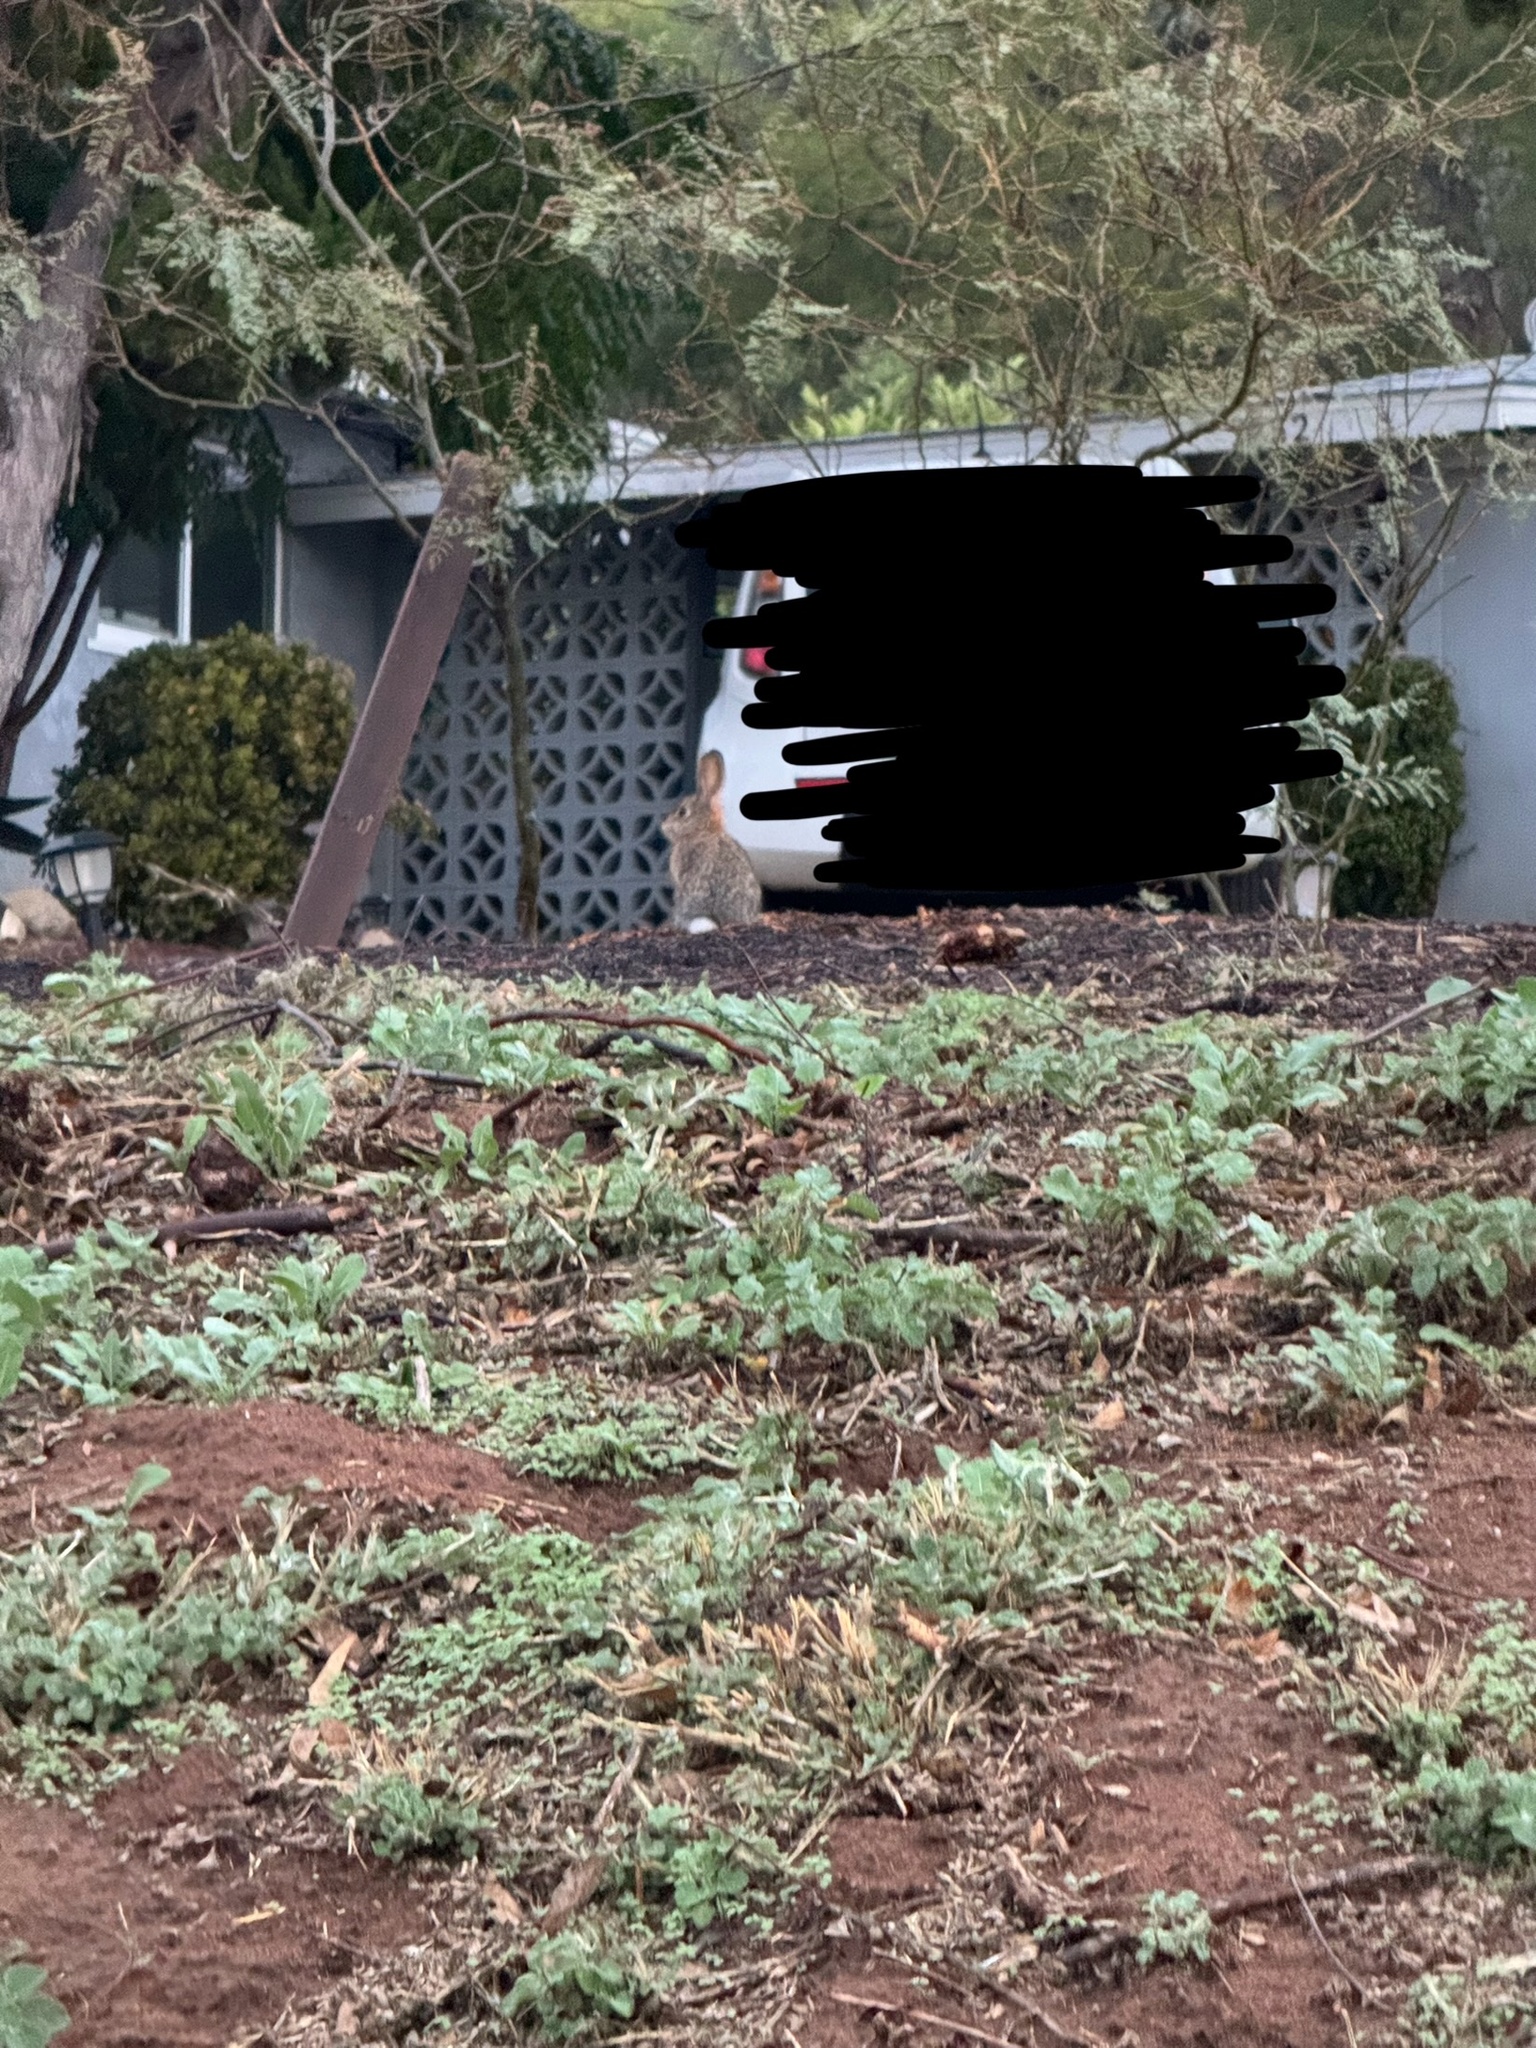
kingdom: Animalia
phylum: Chordata
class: Mammalia
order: Lagomorpha
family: Leporidae
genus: Sylvilagus
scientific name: Sylvilagus audubonii
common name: Desert cottontail
